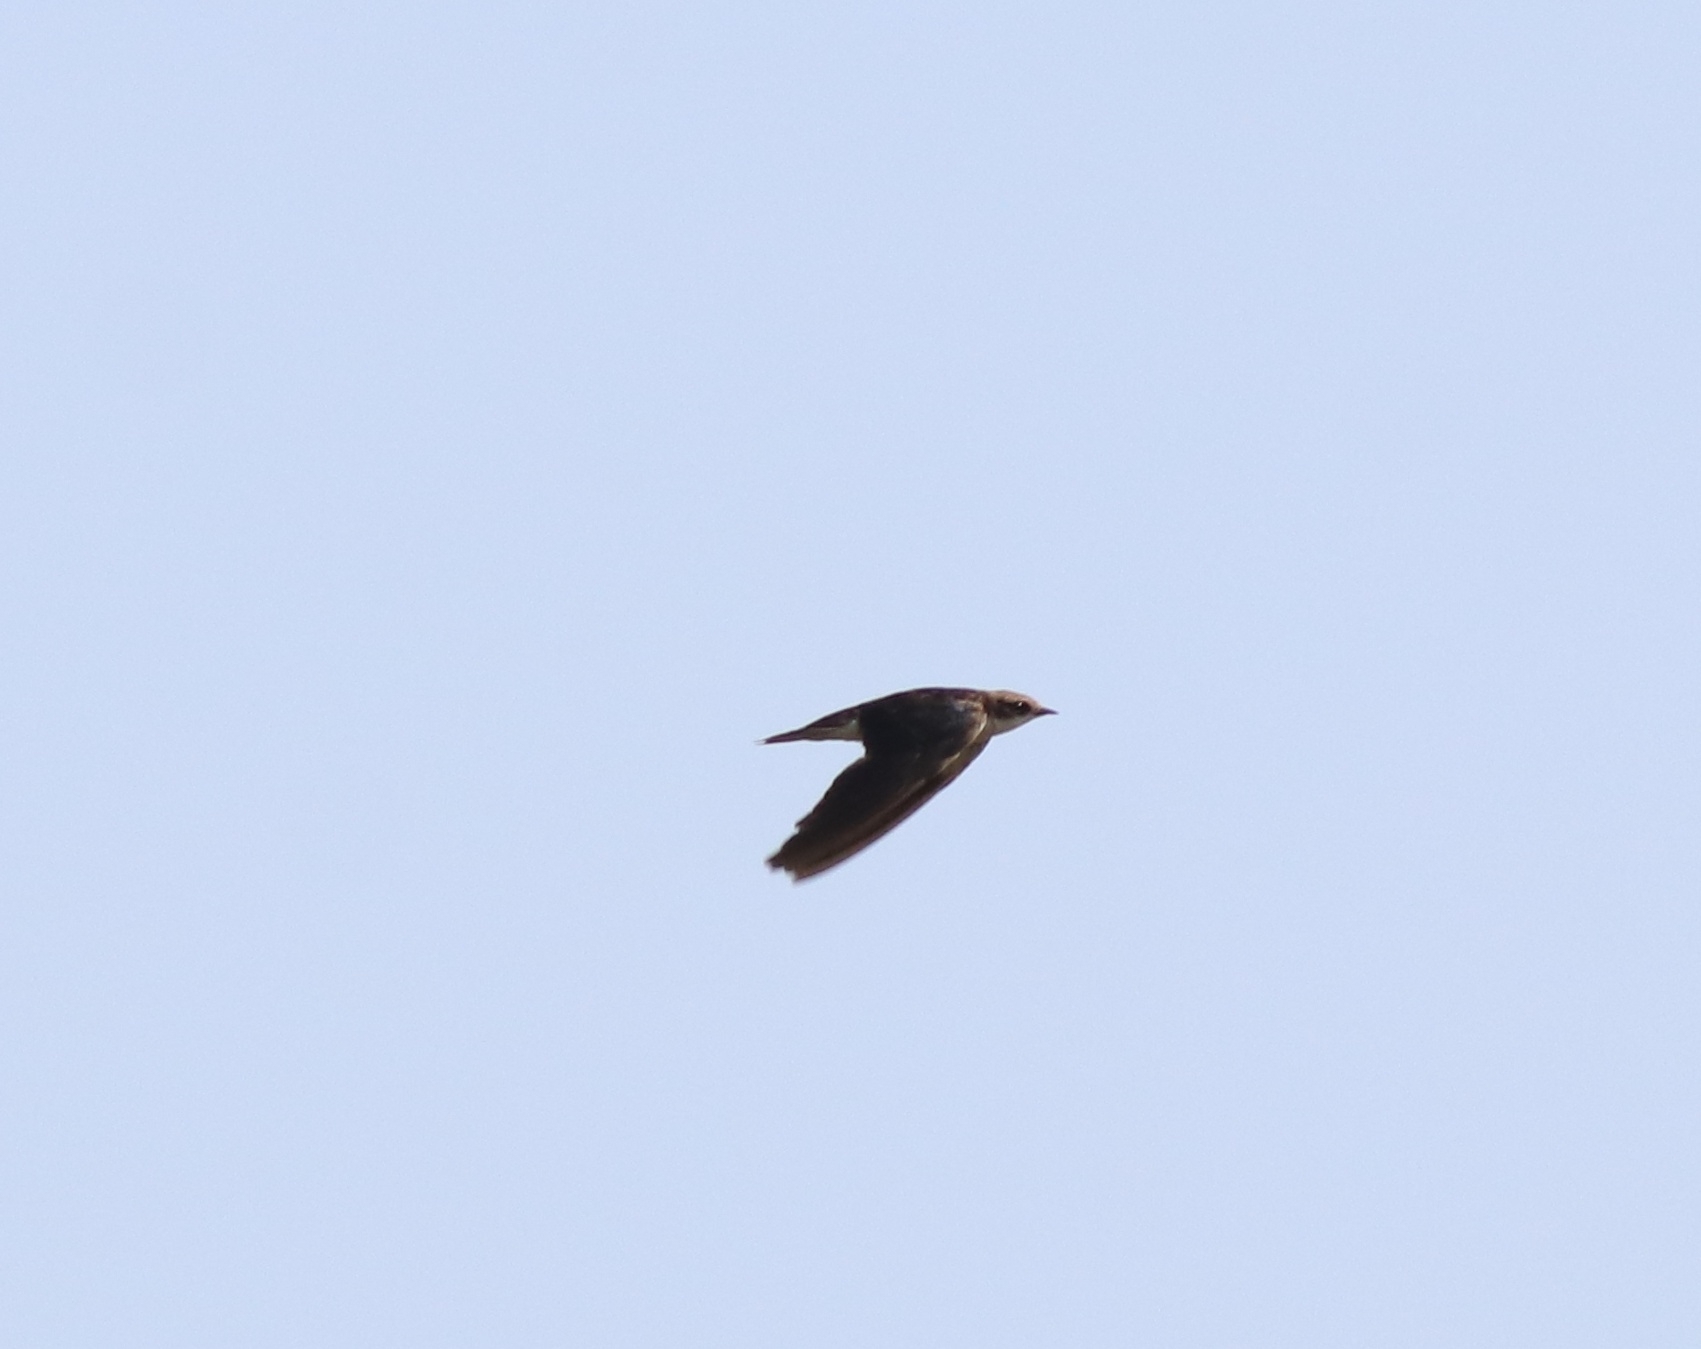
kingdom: Animalia
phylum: Chordata
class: Aves
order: Passeriformes
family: Hirundinidae
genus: Hirundo
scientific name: Hirundo smithii
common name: Wire-tailed swallow
